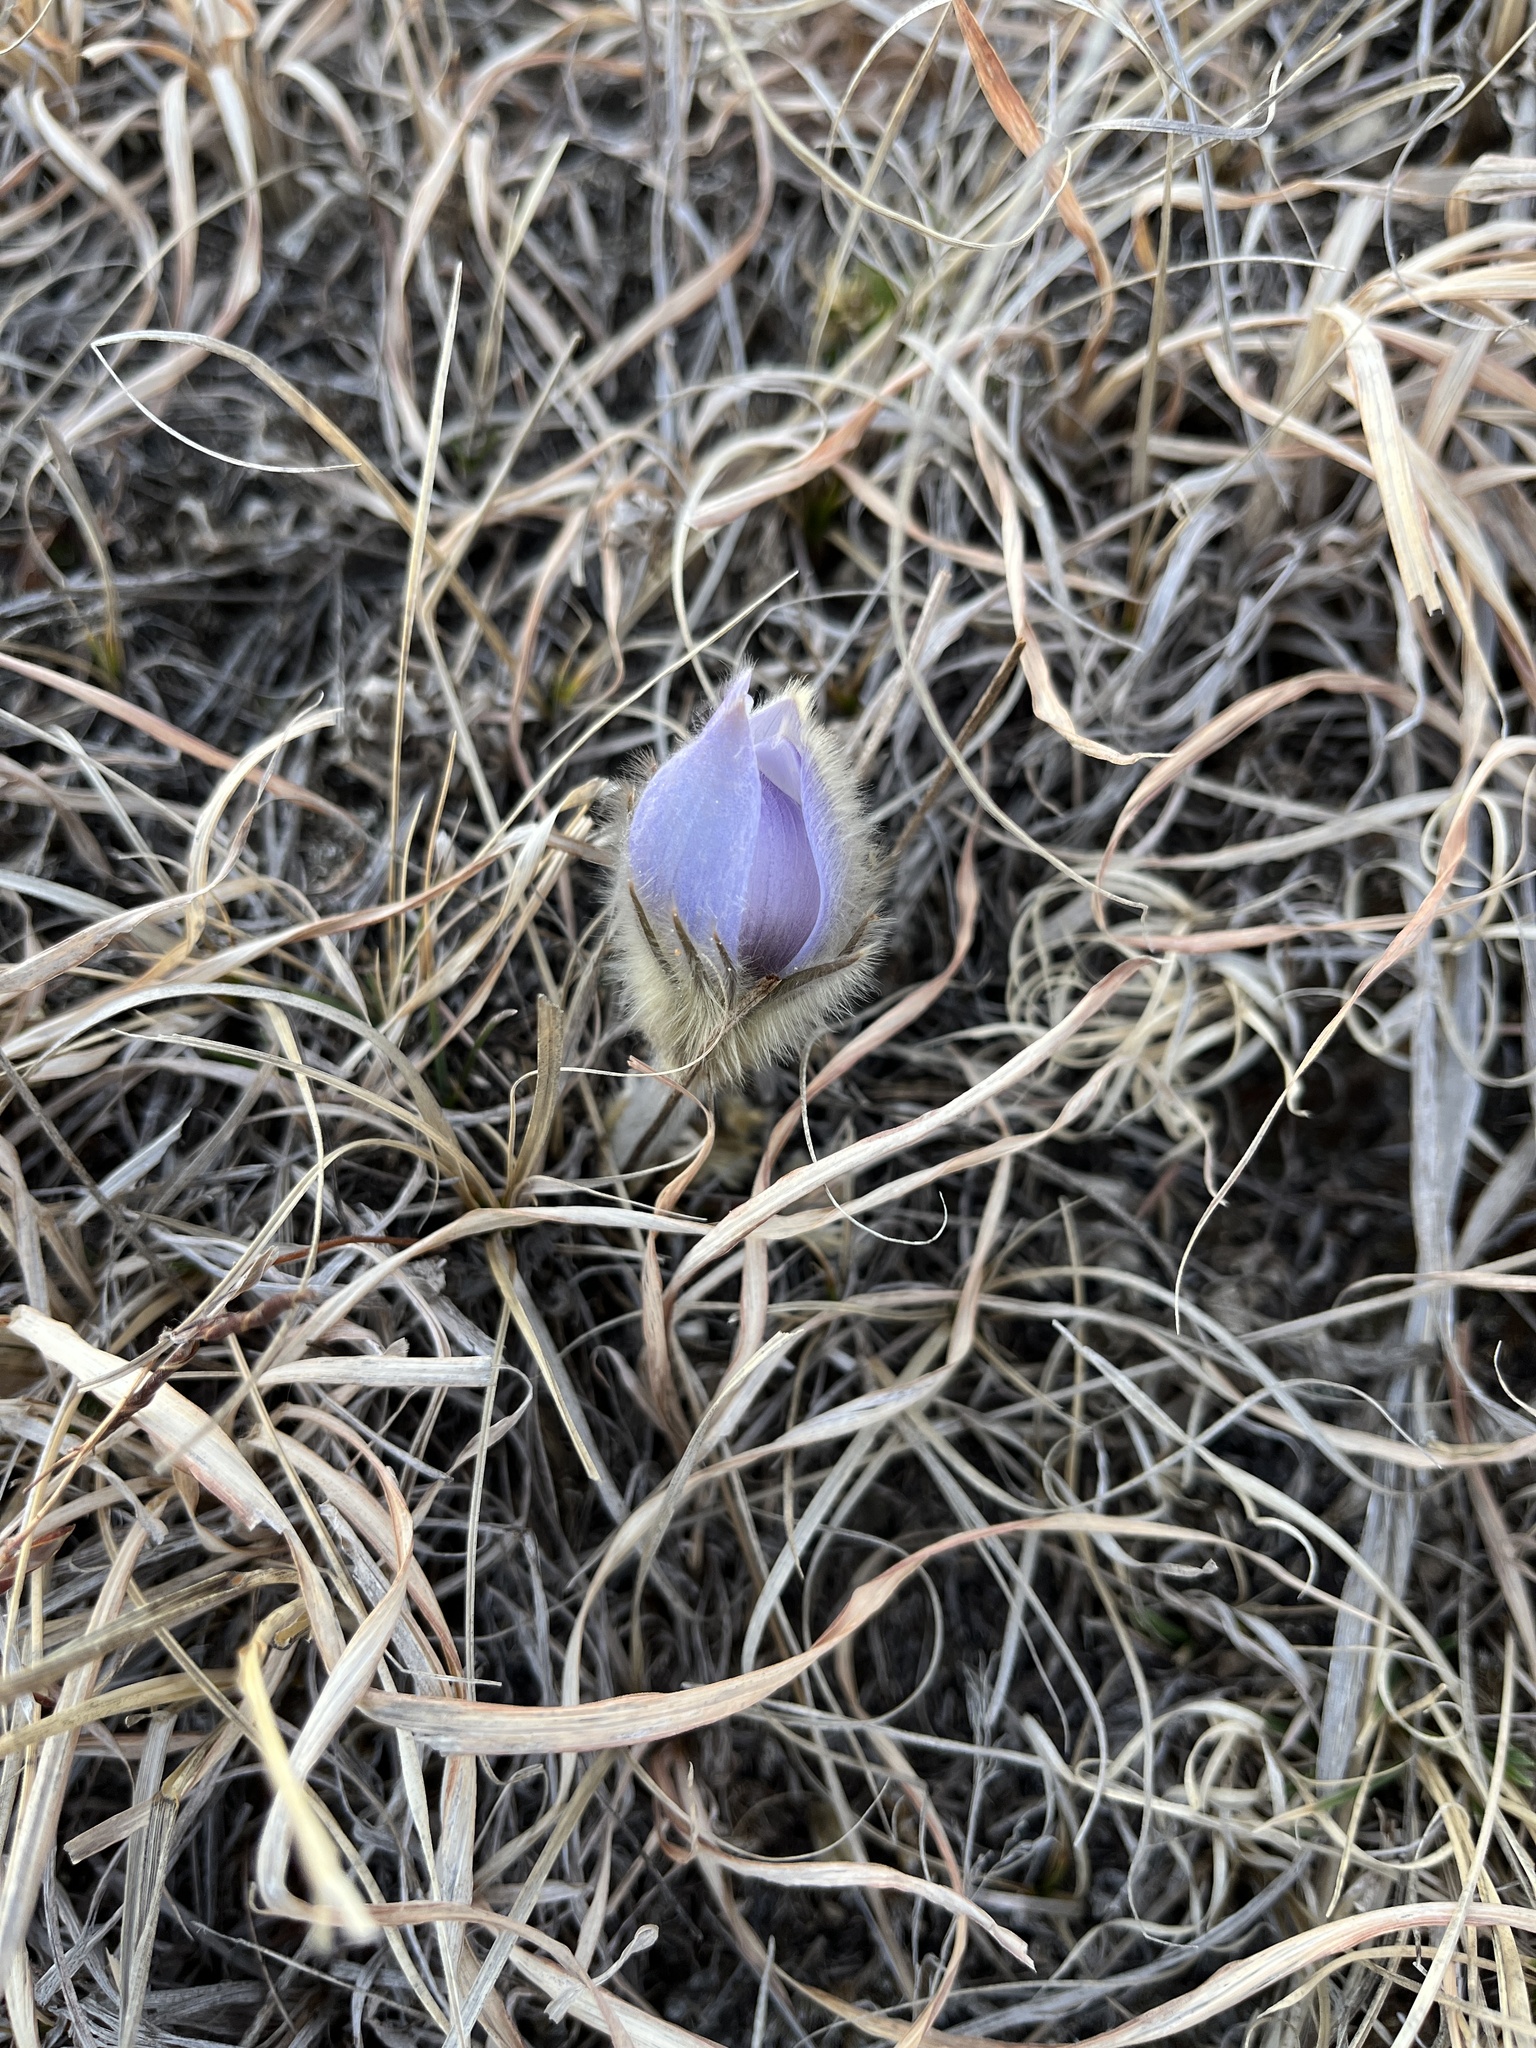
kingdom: Plantae
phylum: Tracheophyta
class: Magnoliopsida
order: Ranunculales
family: Ranunculaceae
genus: Pulsatilla
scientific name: Pulsatilla nuttalliana
